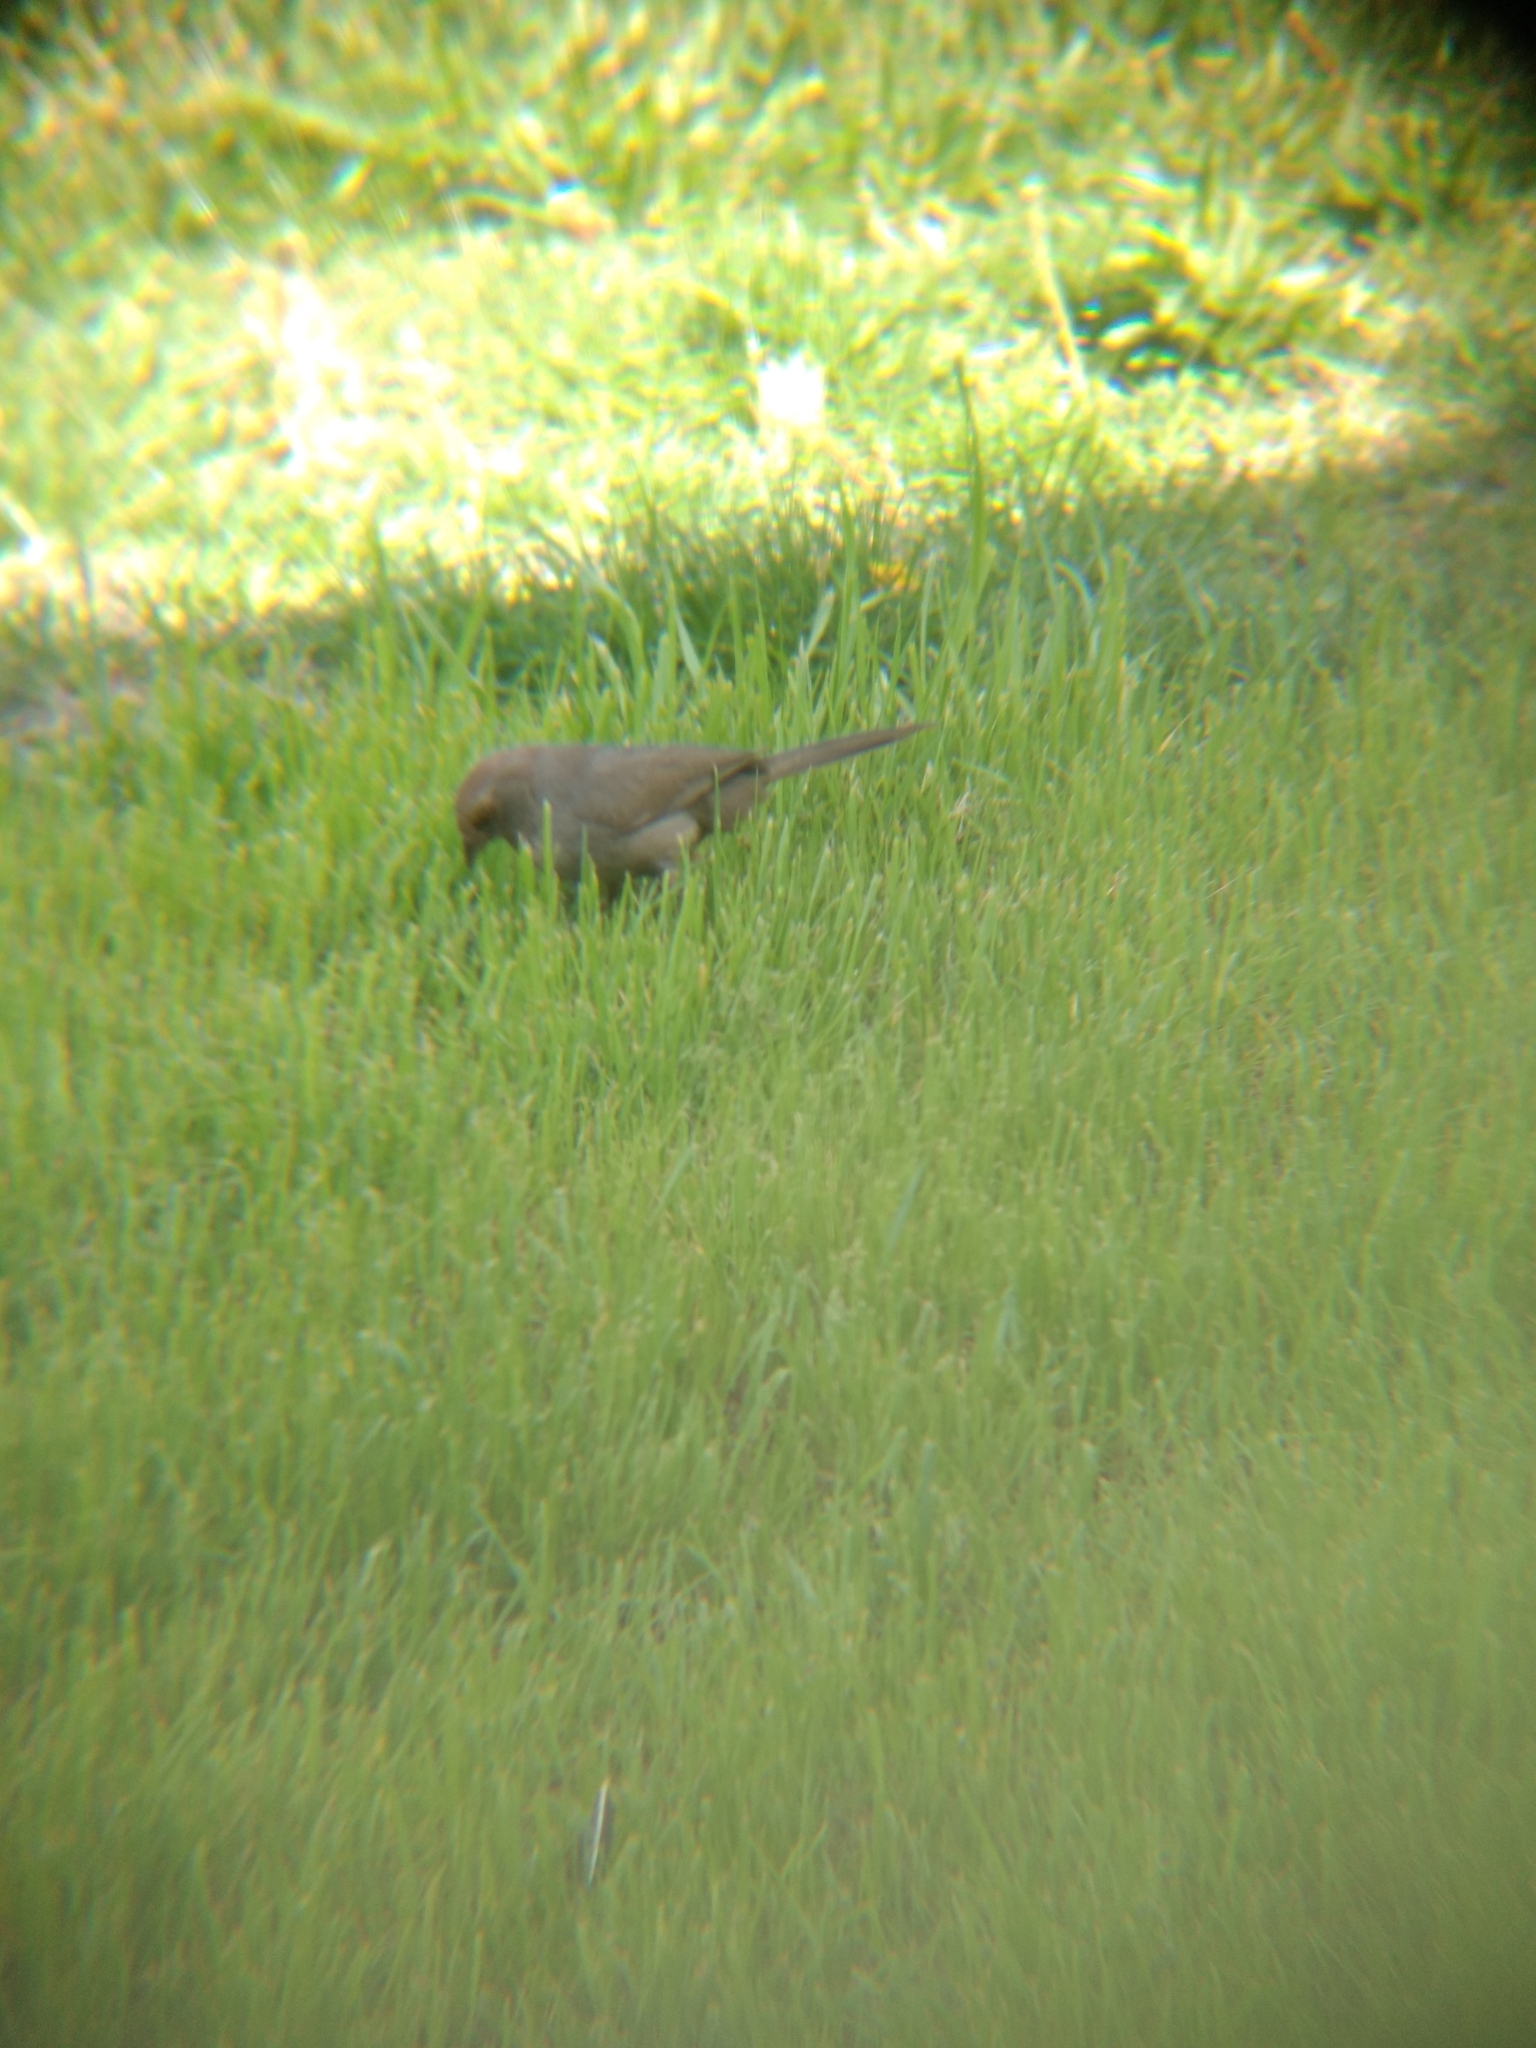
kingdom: Animalia
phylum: Chordata
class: Aves
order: Passeriformes
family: Passerellidae
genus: Melozone
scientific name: Melozone crissalis
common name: California towhee
